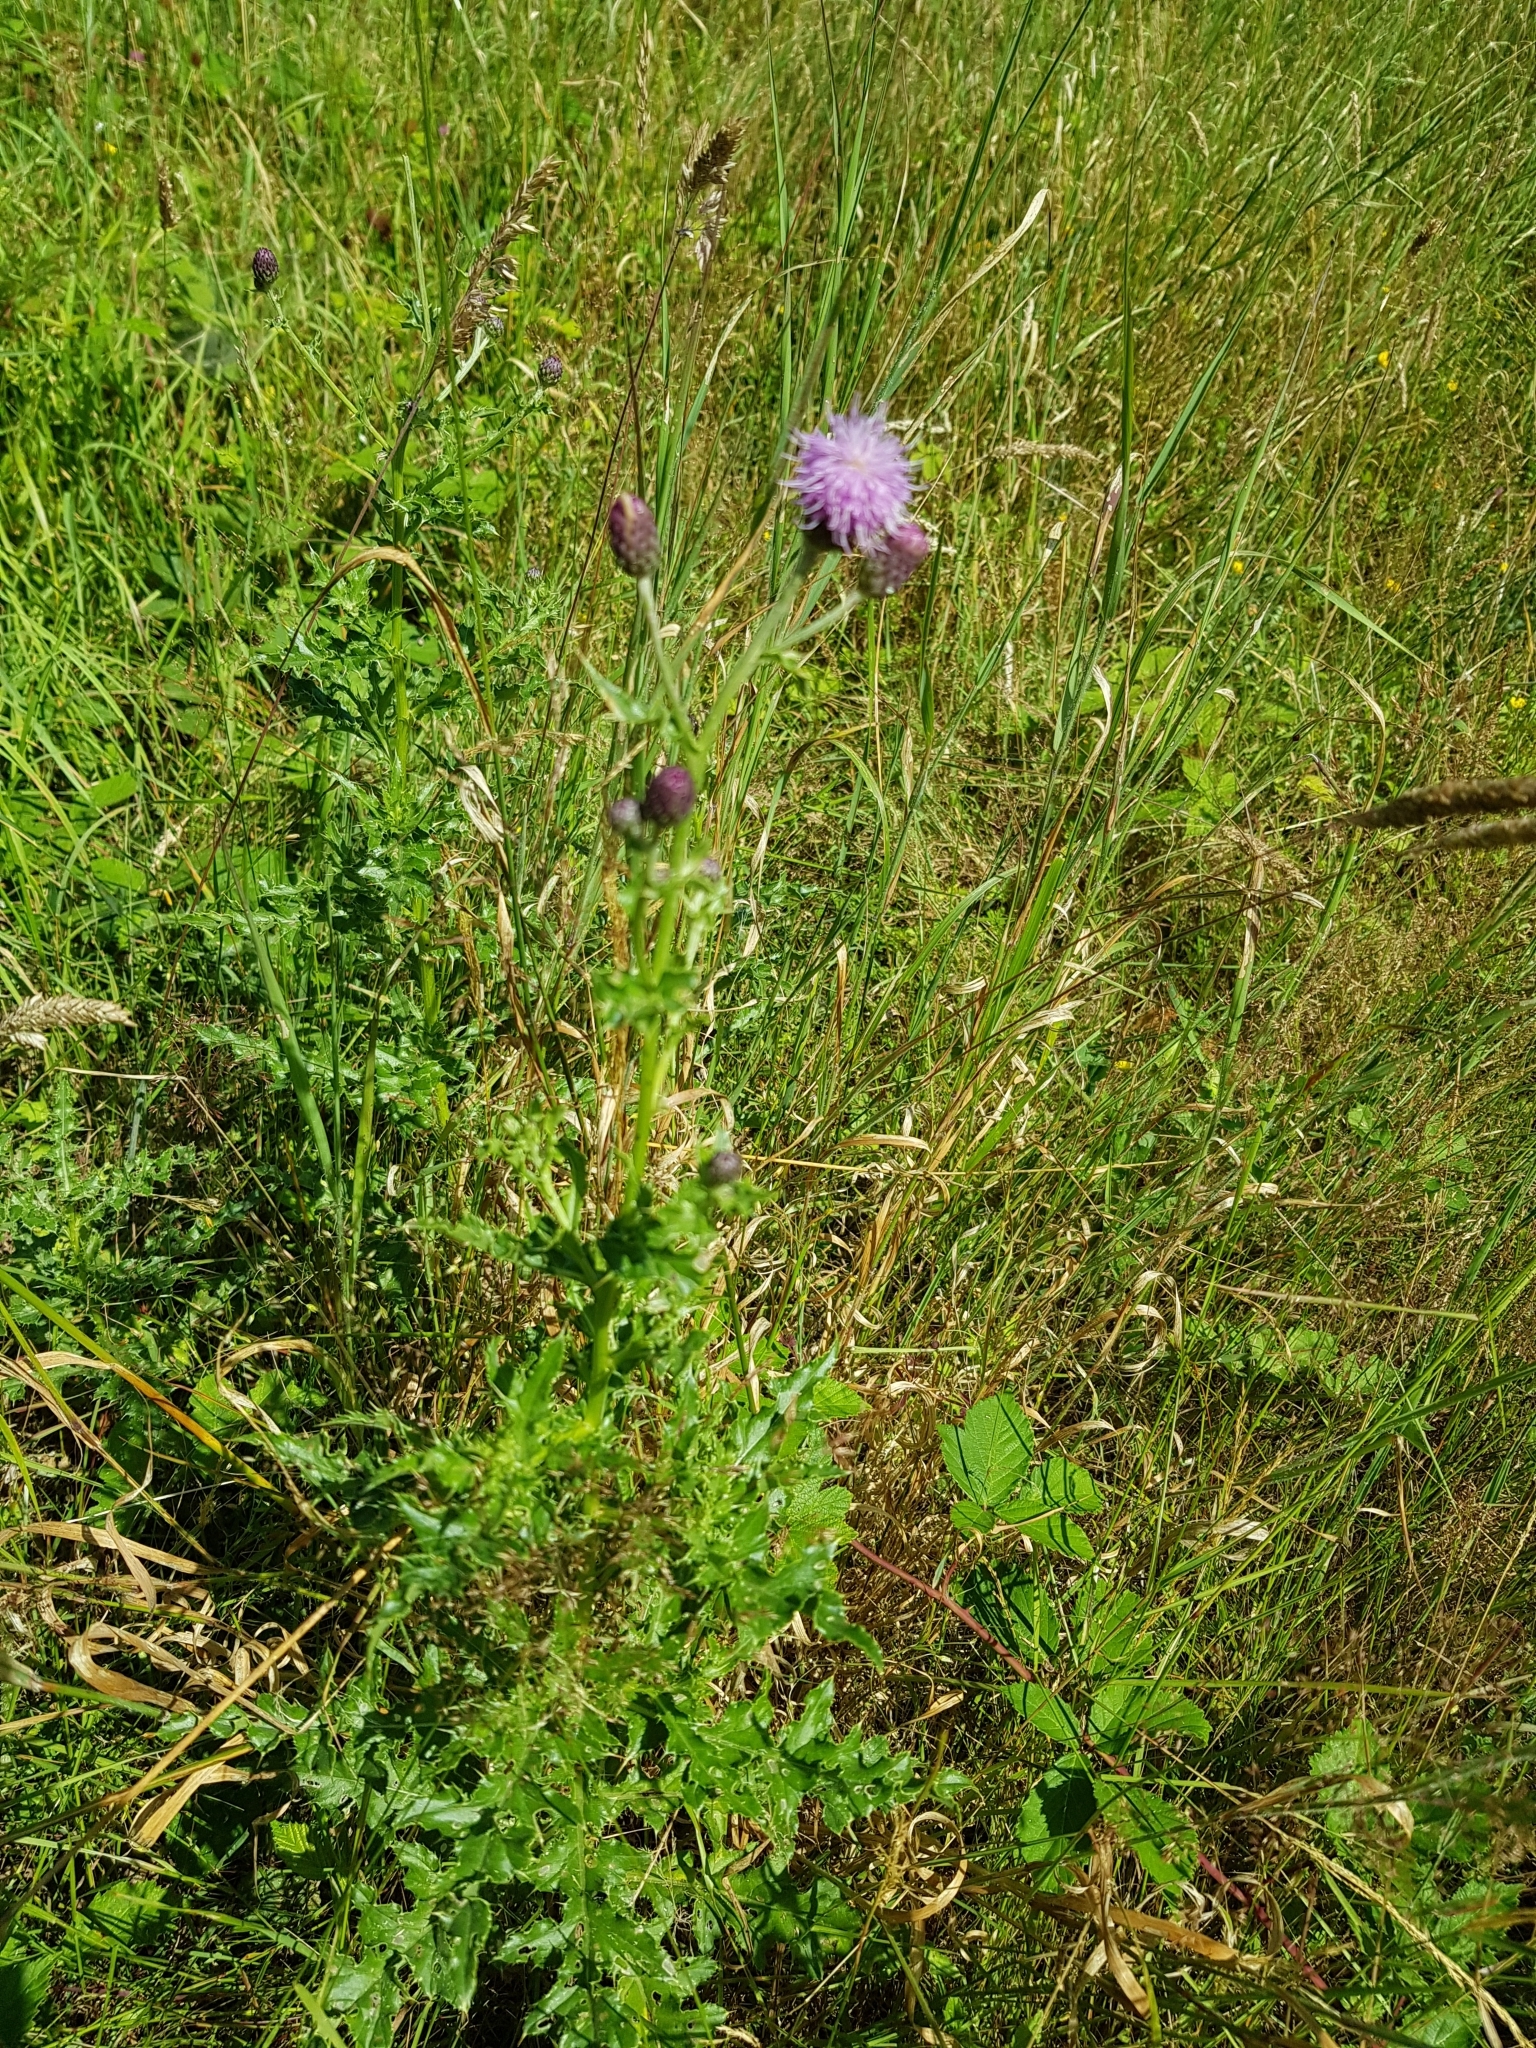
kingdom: Plantae
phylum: Tracheophyta
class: Magnoliopsida
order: Asterales
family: Asteraceae
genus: Cirsium
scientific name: Cirsium arvense
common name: Creeping thistle
